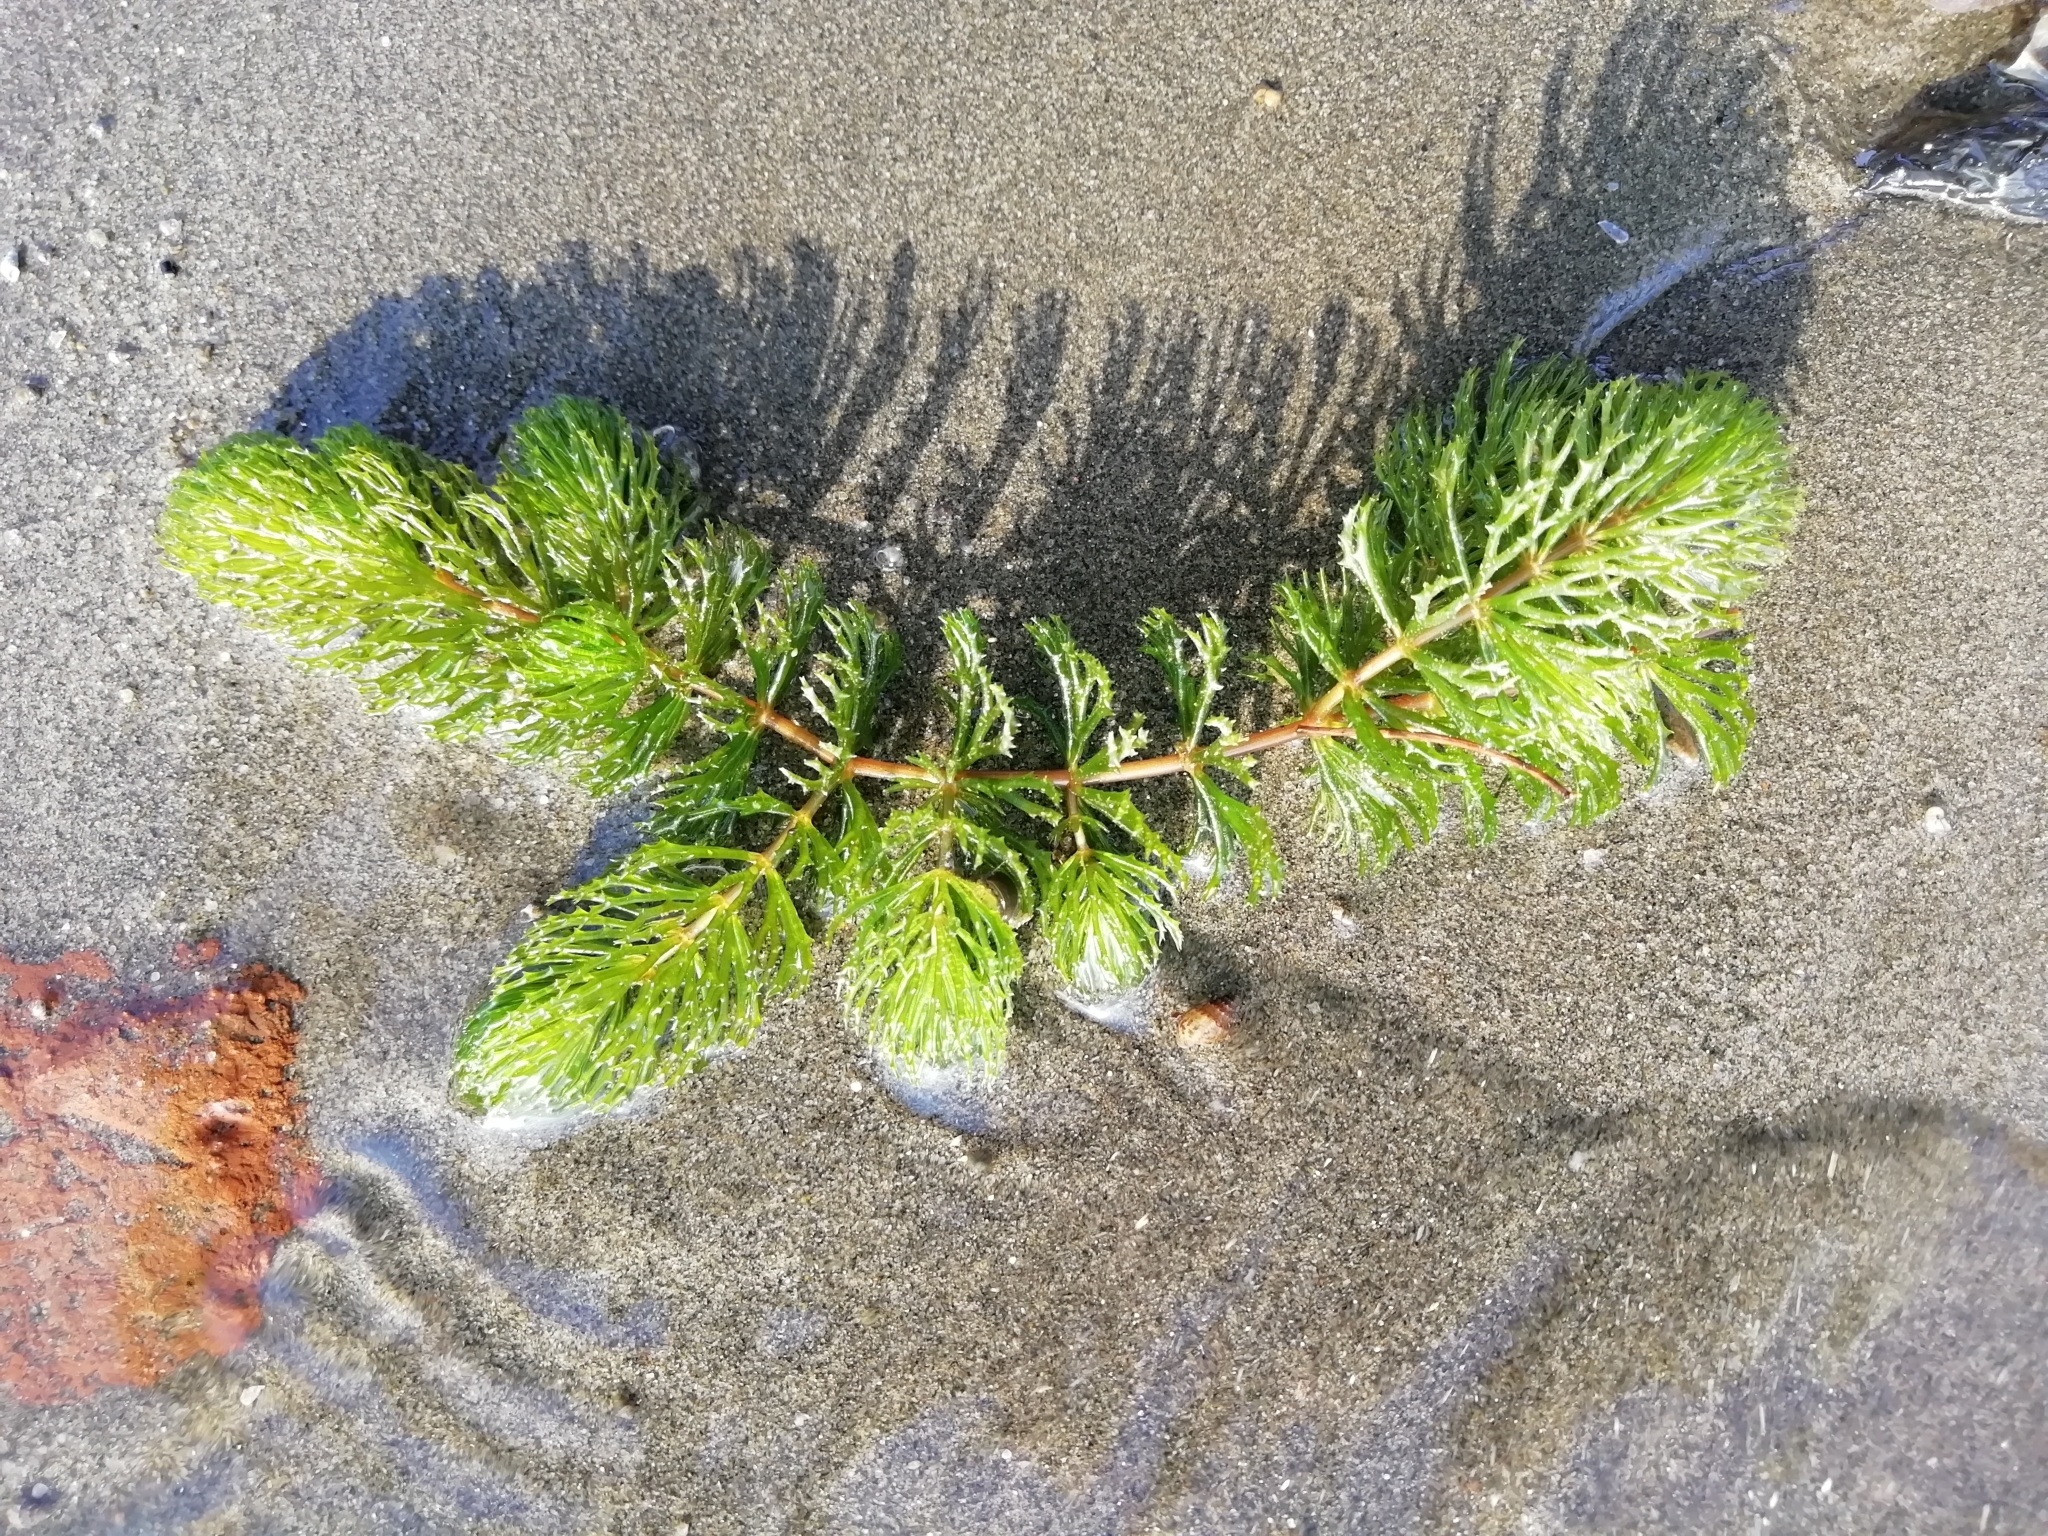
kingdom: Plantae
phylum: Tracheophyta
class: Magnoliopsida
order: Ceratophyllales
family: Ceratophyllaceae
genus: Ceratophyllum
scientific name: Ceratophyllum demersum
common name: Rigid hornwort
